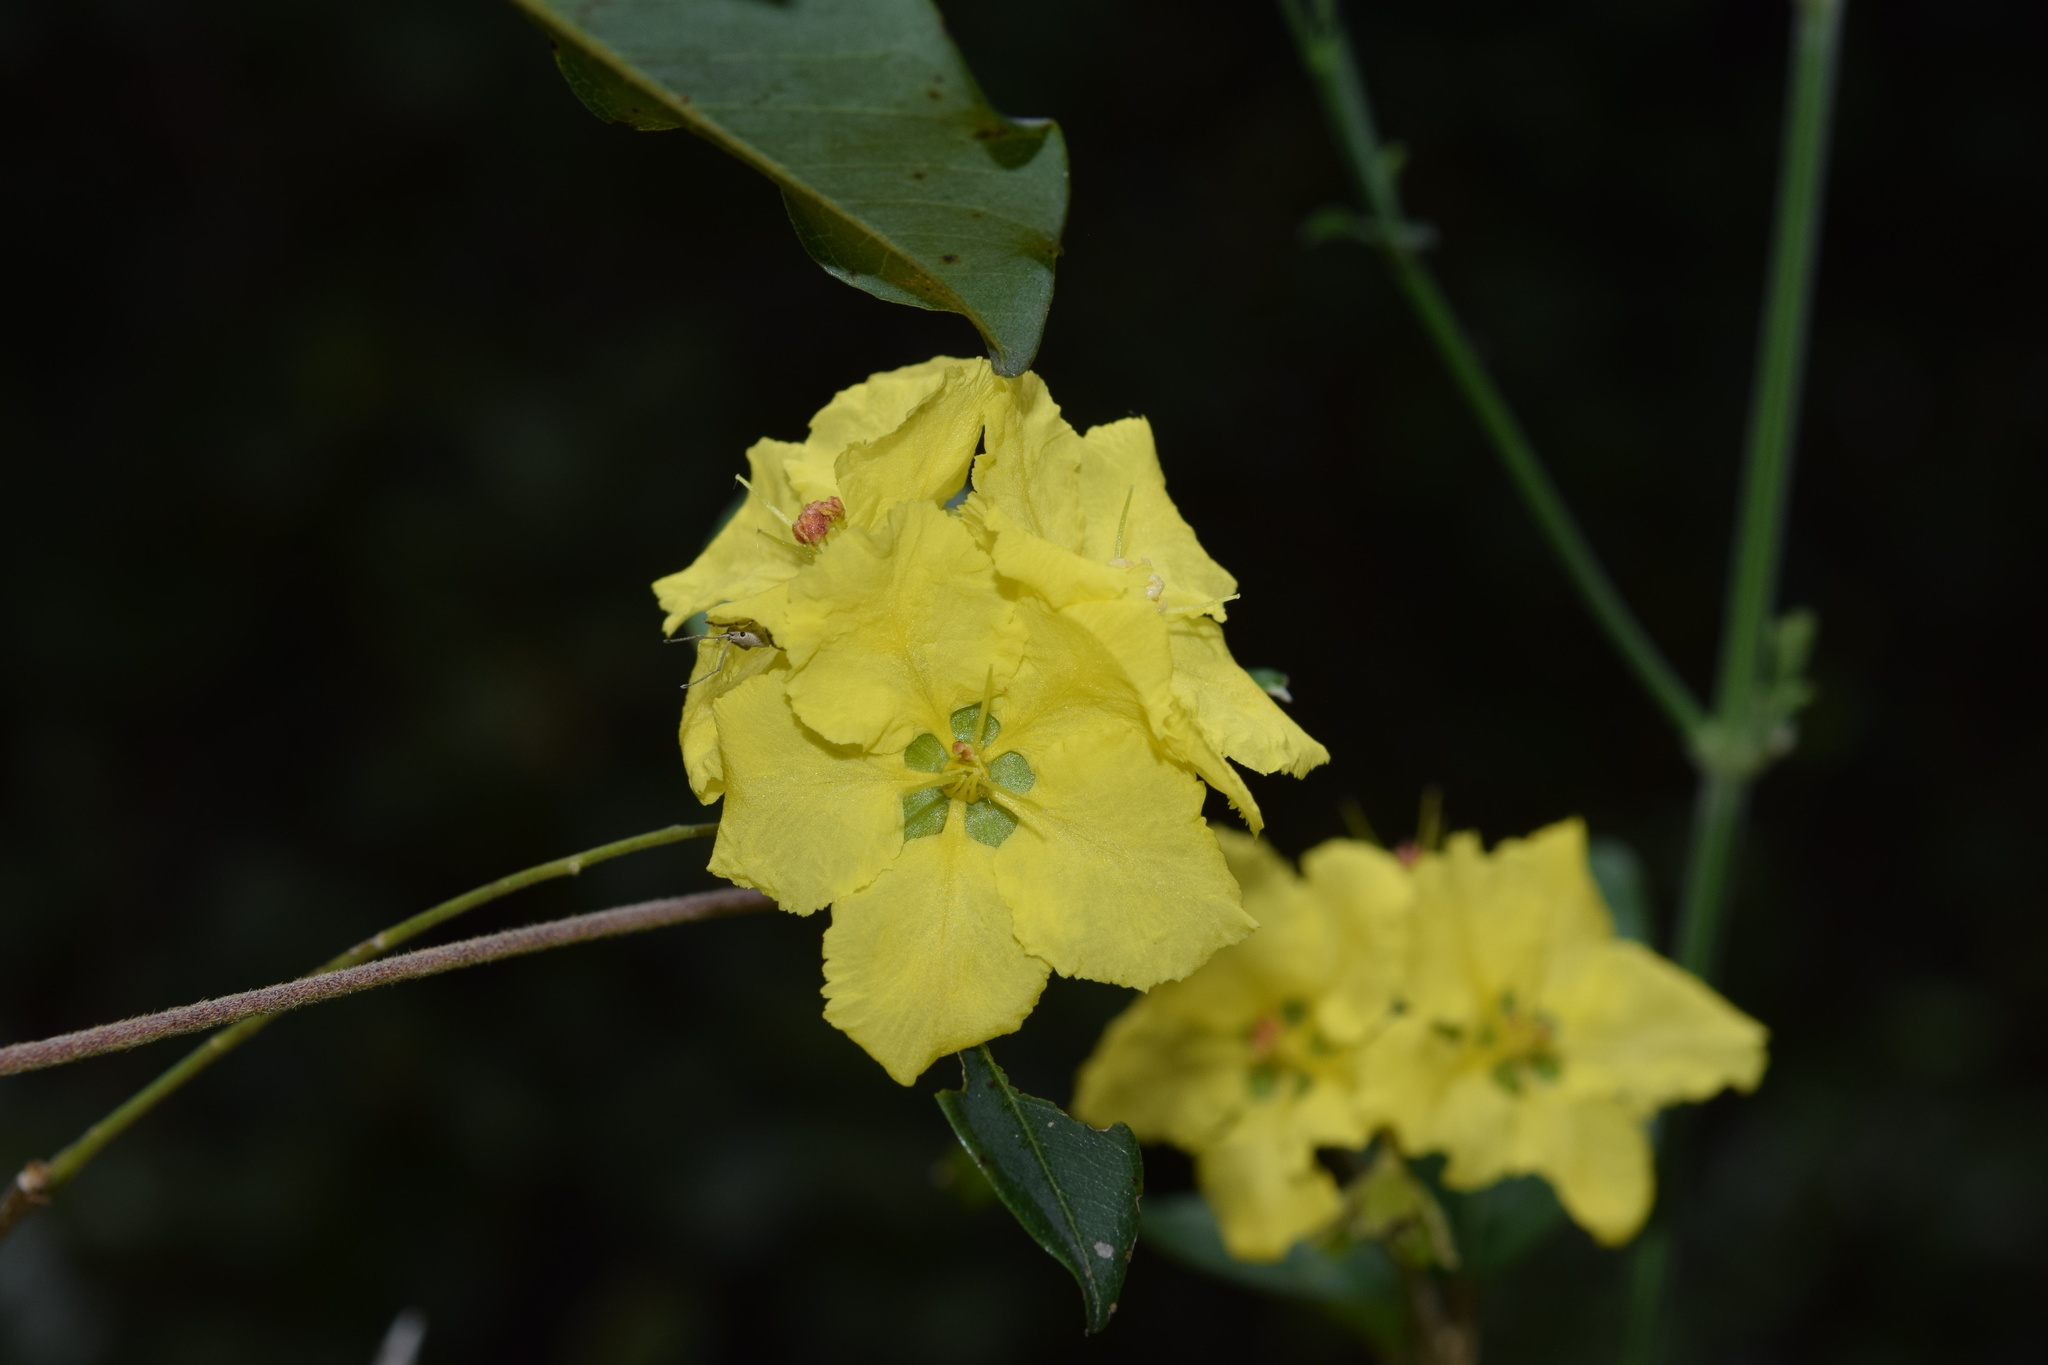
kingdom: Plantae
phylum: Tracheophyta
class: Magnoliopsida
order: Malpighiales
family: Malpighiaceae
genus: Sphedamnocarpus
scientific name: Sphedamnocarpus pruriens
